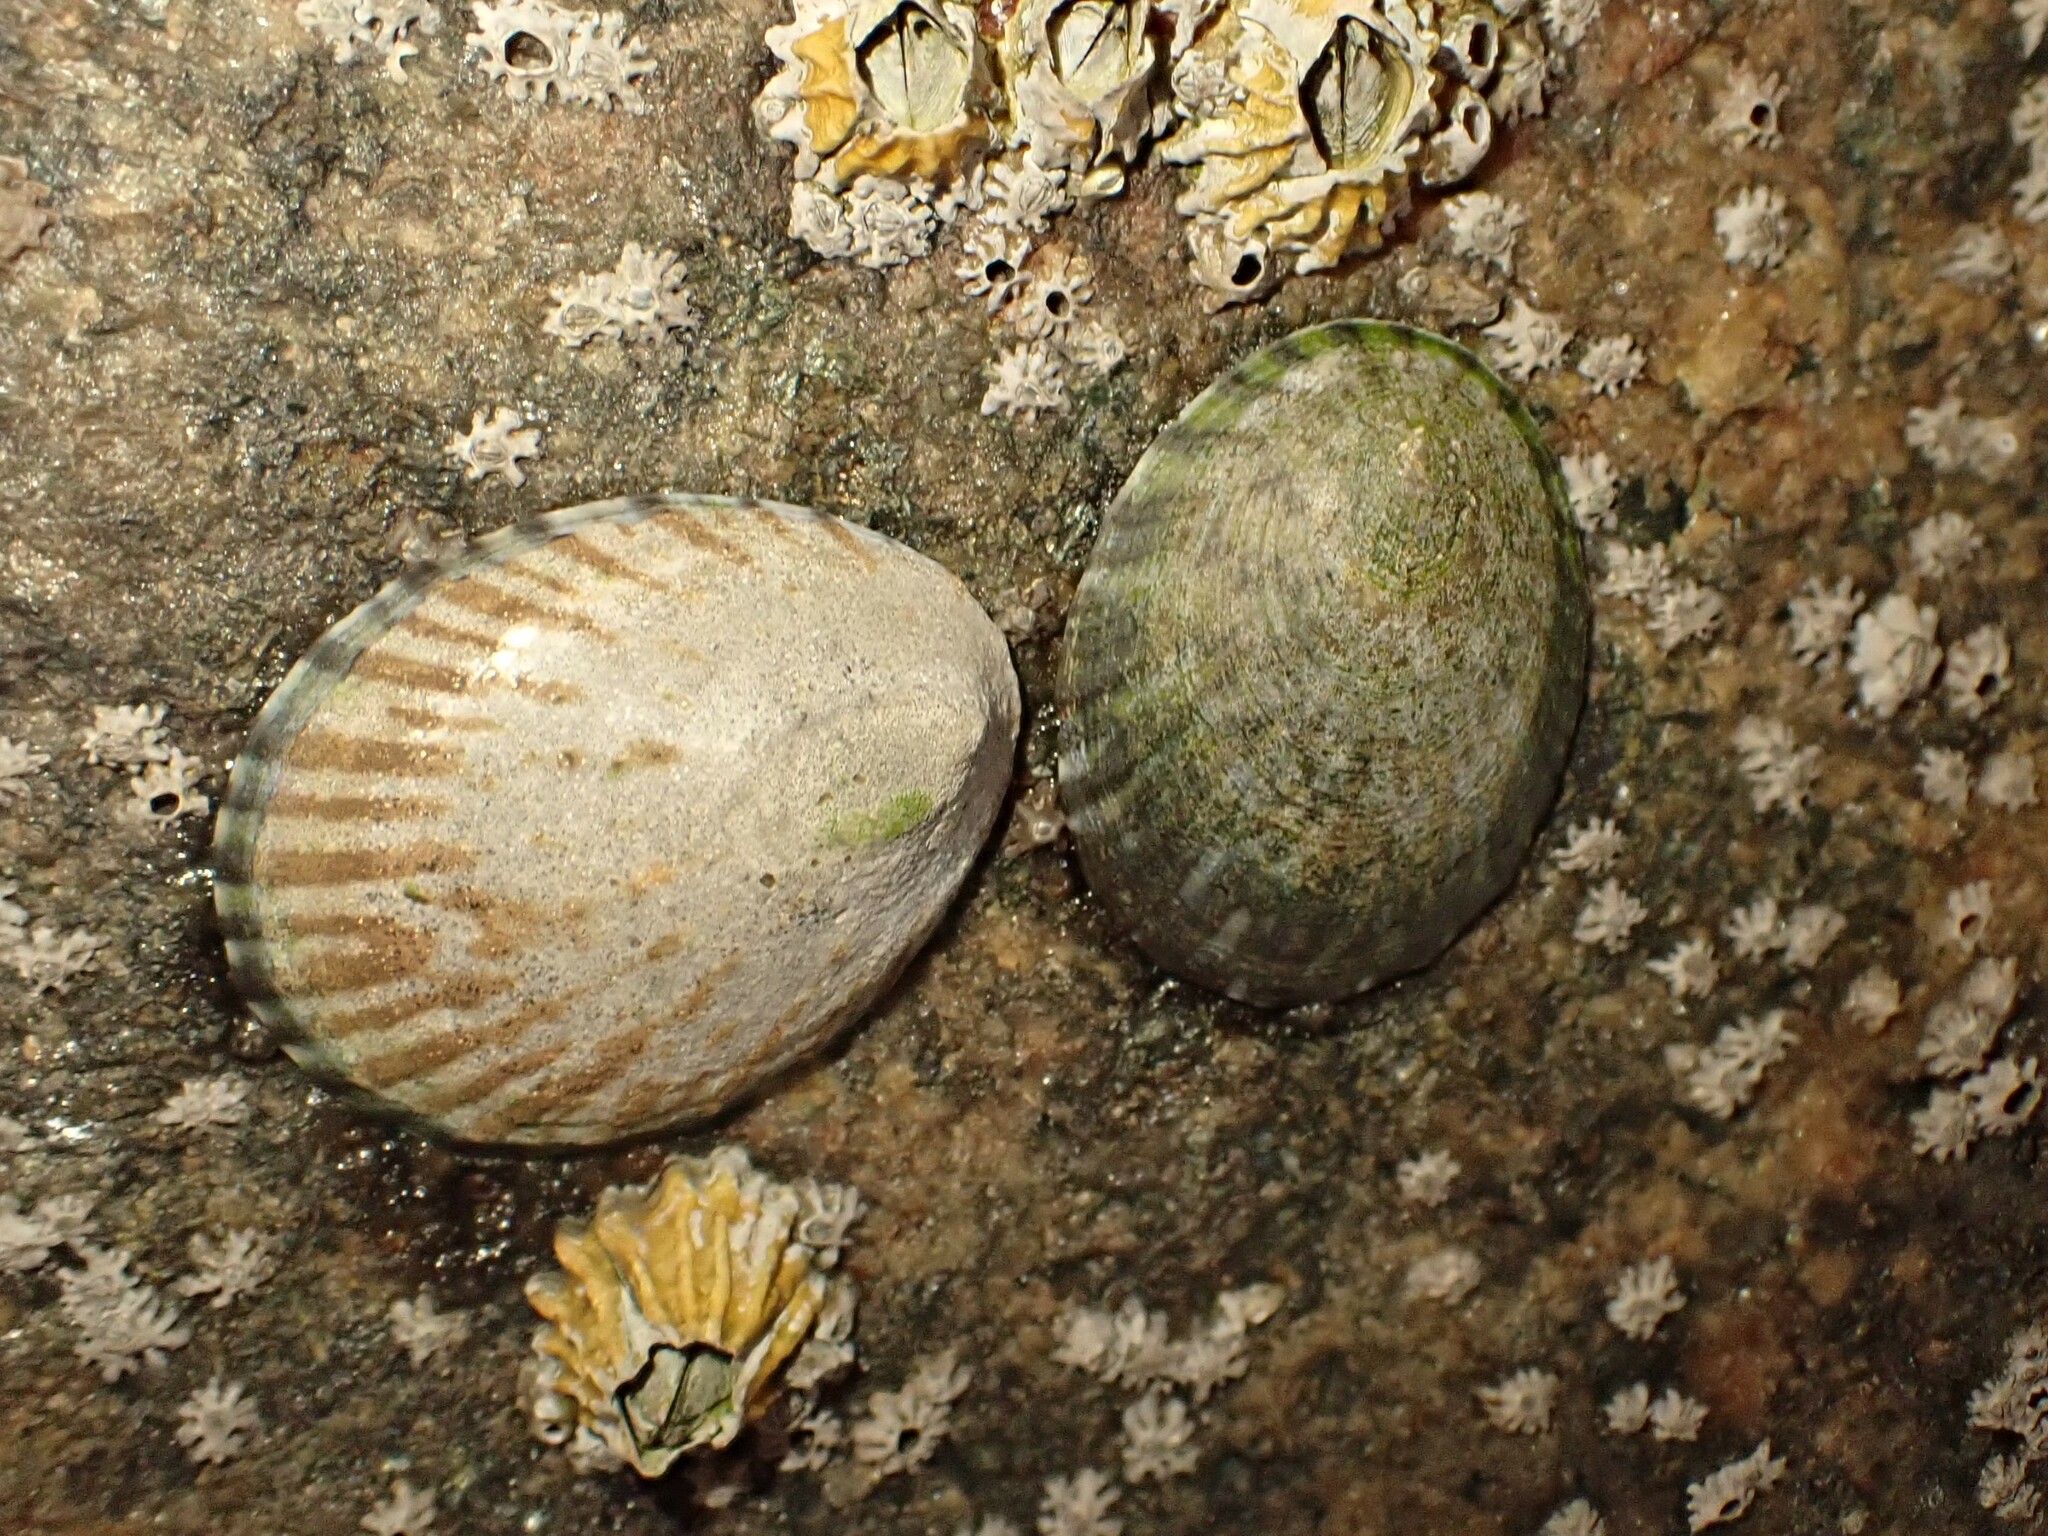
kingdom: Animalia
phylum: Mollusca
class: Gastropoda
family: Nacellidae
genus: Cellana
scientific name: Cellana radians
